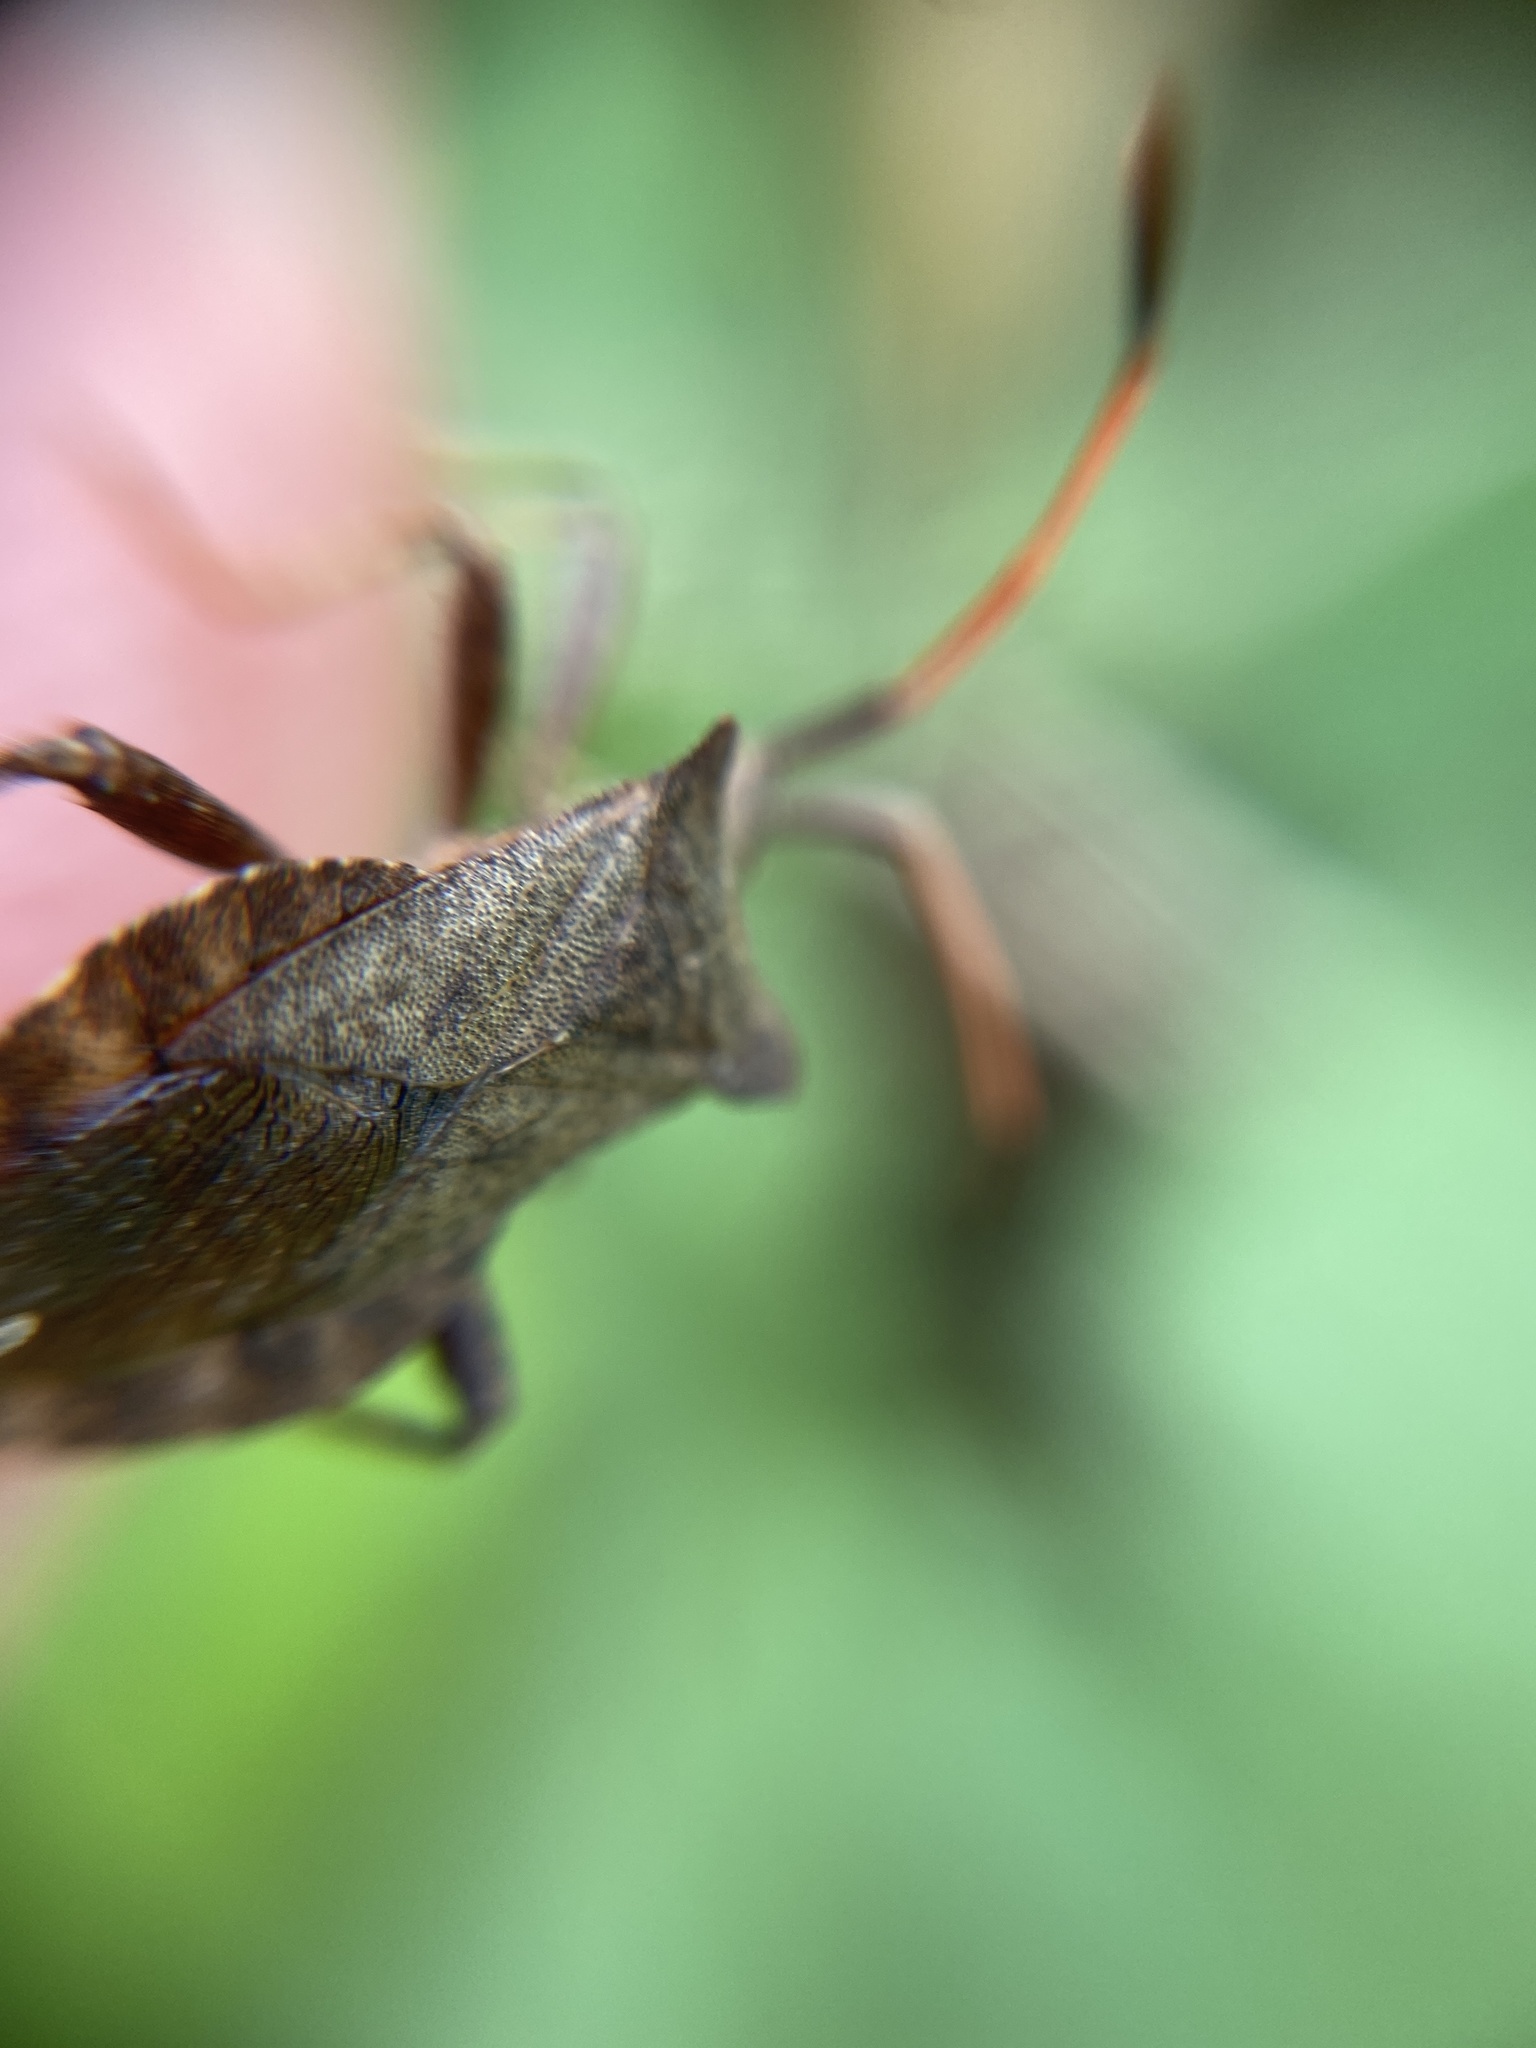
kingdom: Animalia
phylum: Arthropoda
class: Insecta
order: Hemiptera
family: Coreidae
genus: Coreus
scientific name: Coreus marginatus
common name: Dock bug
